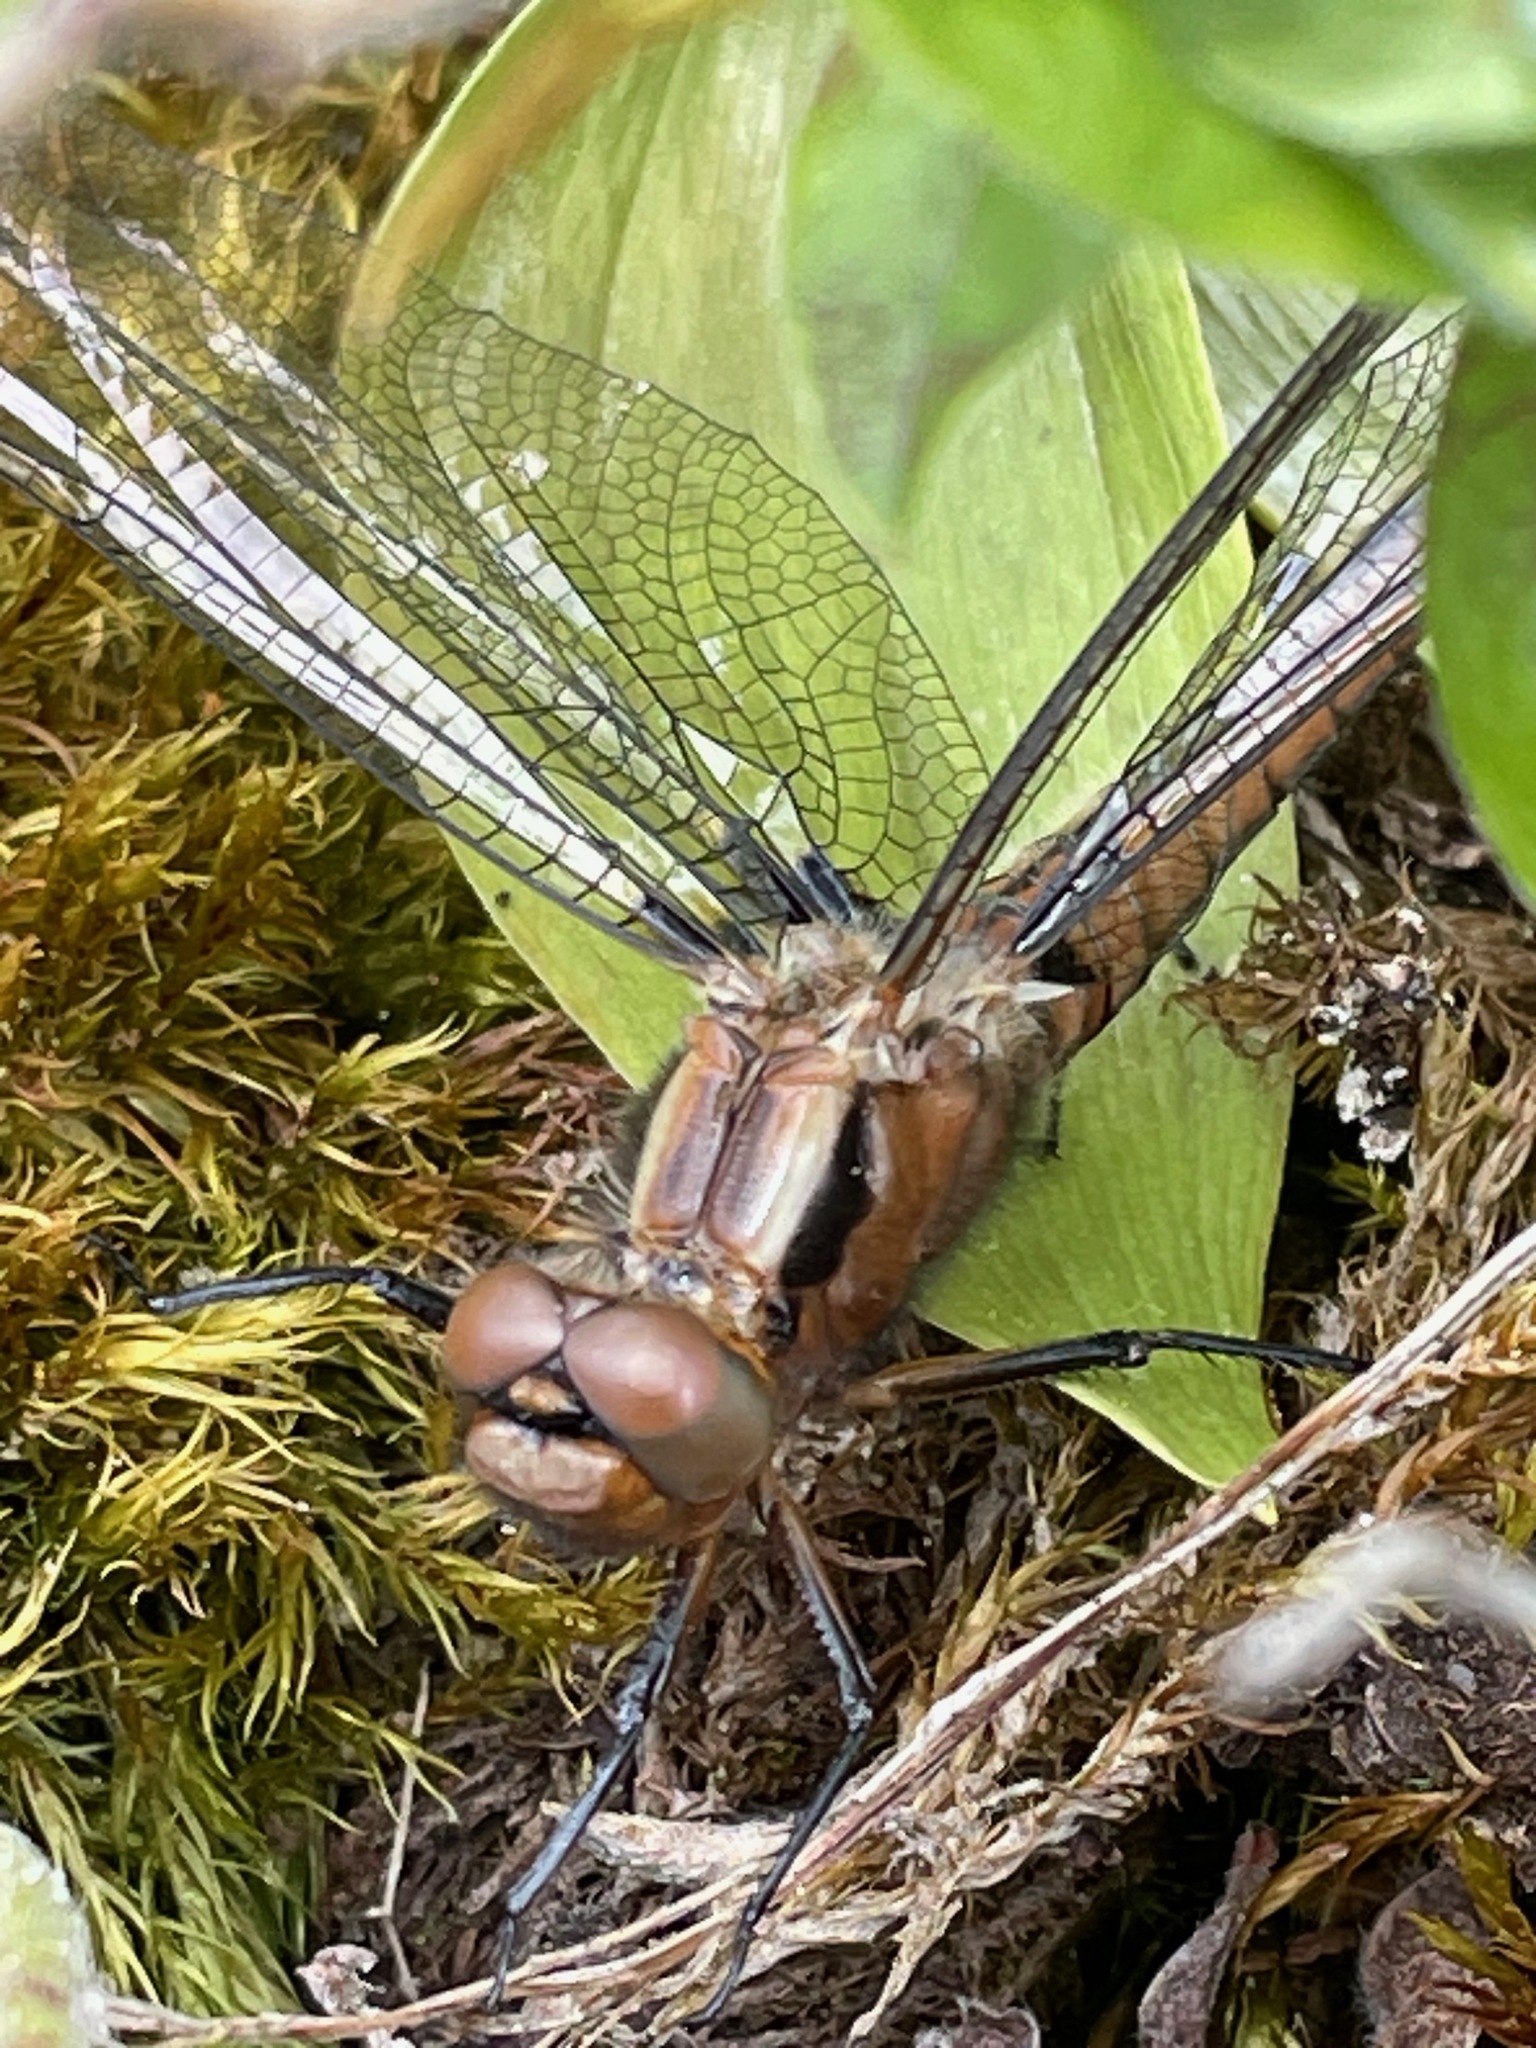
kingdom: Animalia
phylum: Arthropoda
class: Insecta
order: Odonata
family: Libellulidae
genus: Ladona
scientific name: Ladona julia
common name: Chalk-fronted corporal
